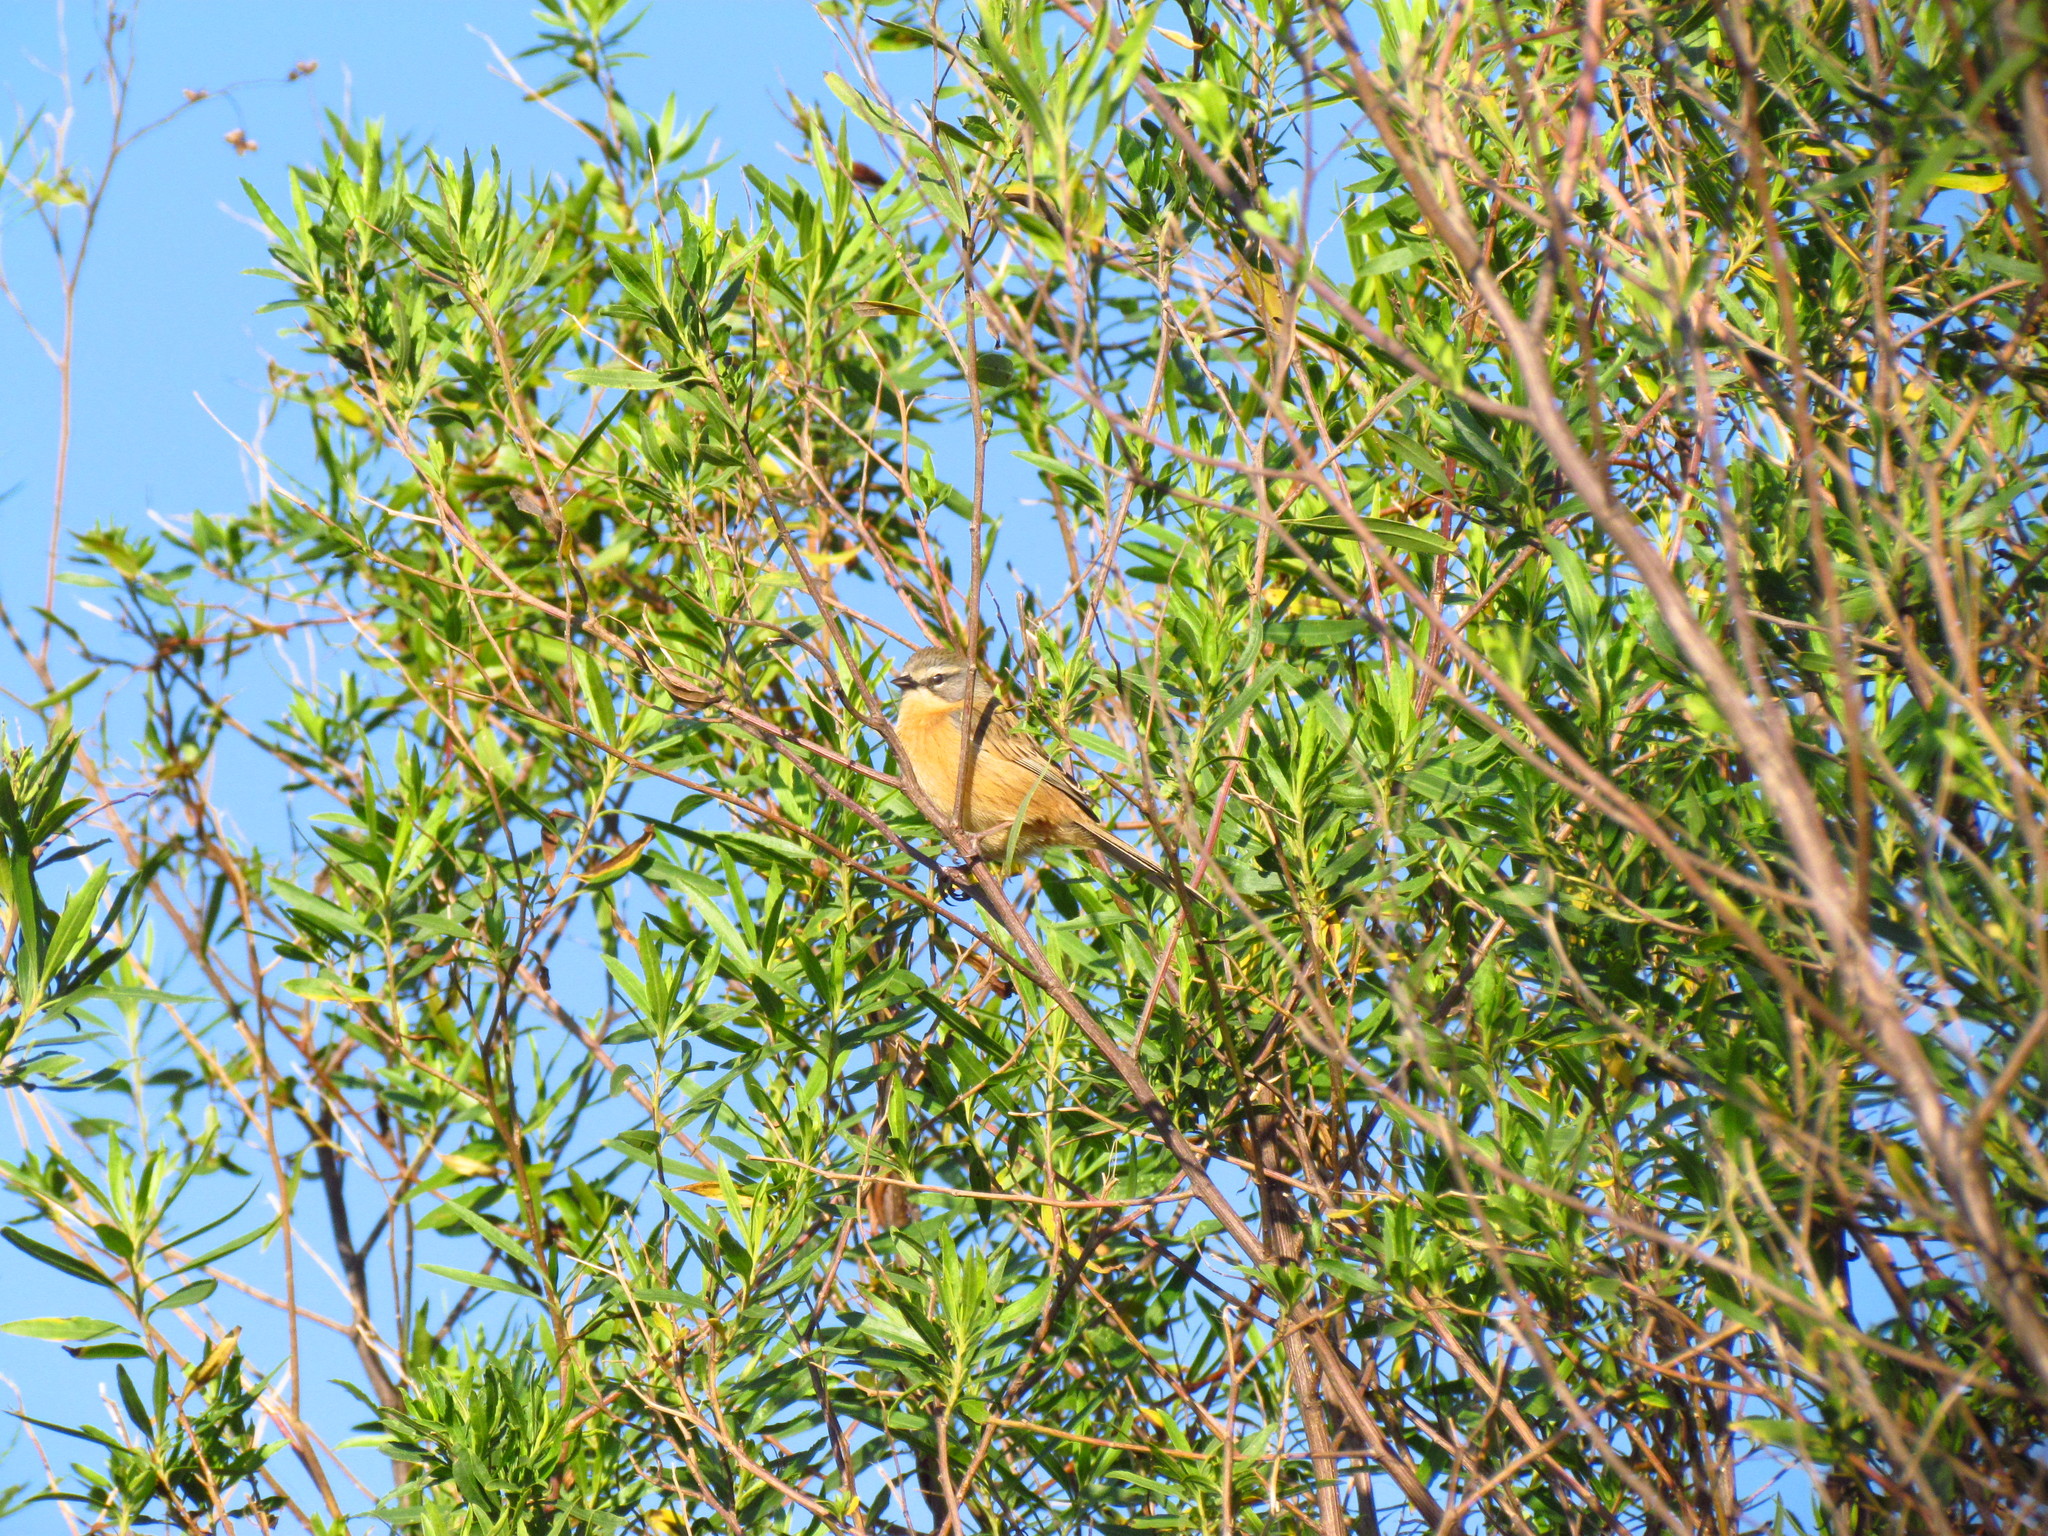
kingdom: Animalia
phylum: Chordata
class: Aves
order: Passeriformes
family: Thraupidae
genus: Donacospiza
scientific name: Donacospiza albifrons
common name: Long-tailed reed finch
